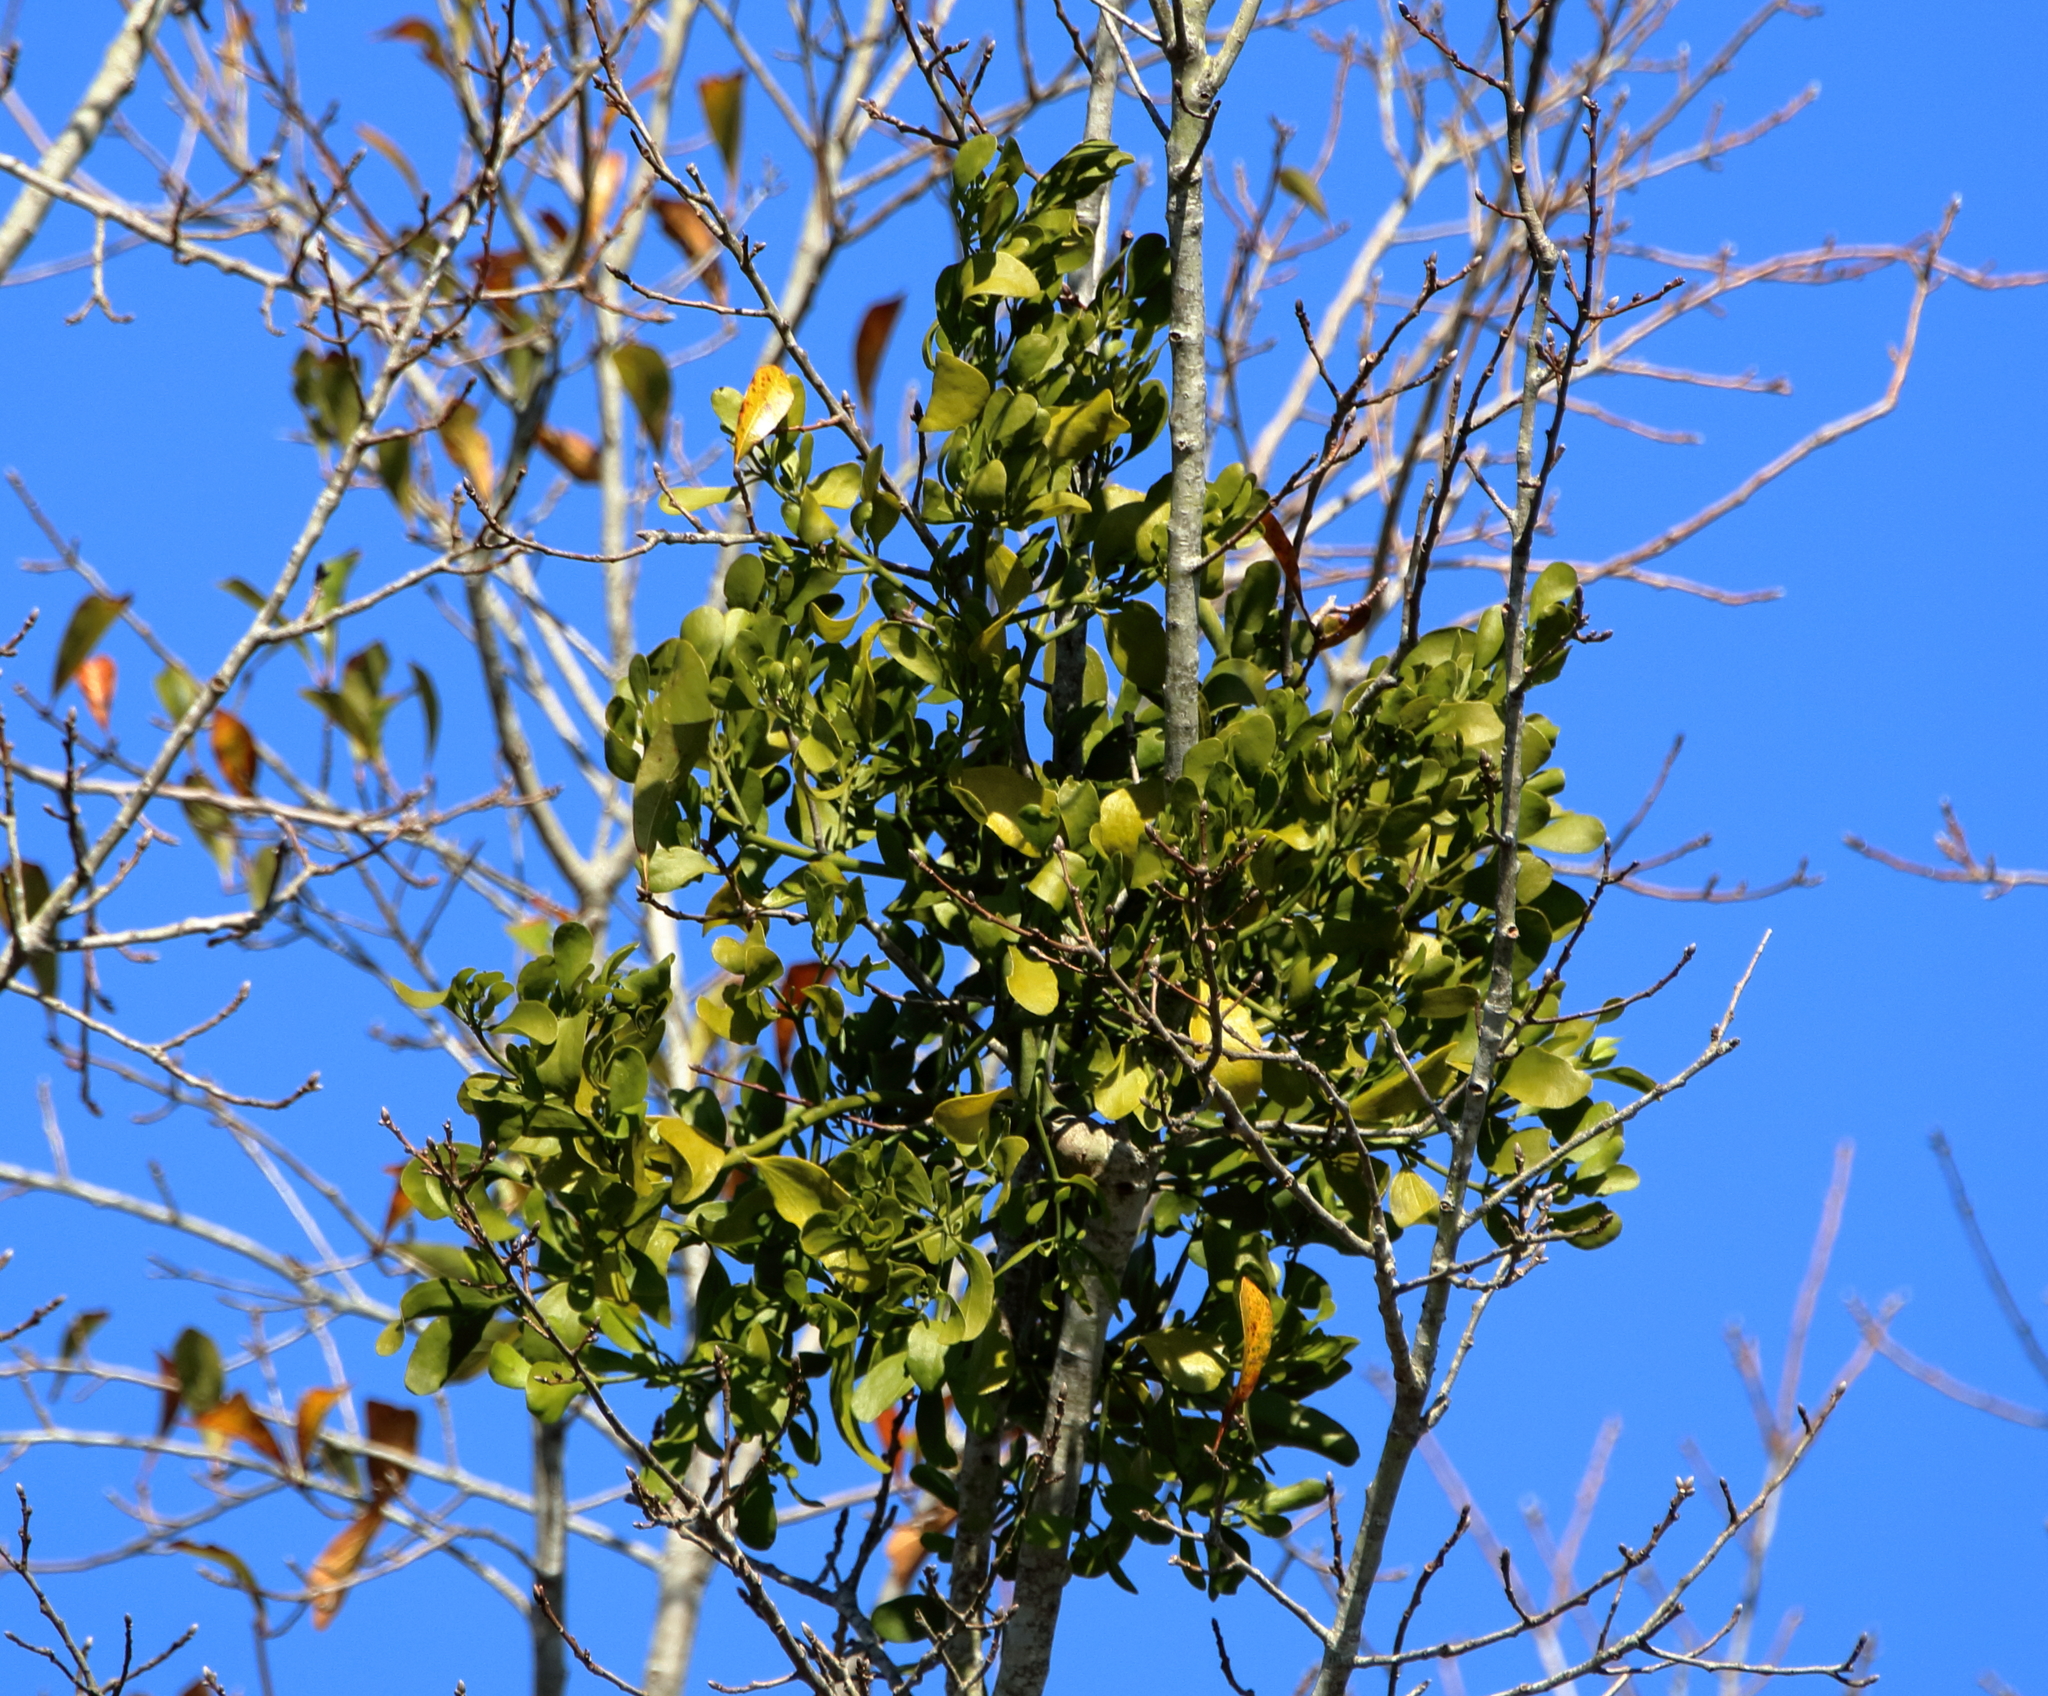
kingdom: Plantae
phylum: Tracheophyta
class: Magnoliopsida
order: Santalales
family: Viscaceae
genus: Phoradendron
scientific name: Phoradendron leucarpum
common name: Pacific mistletoe
